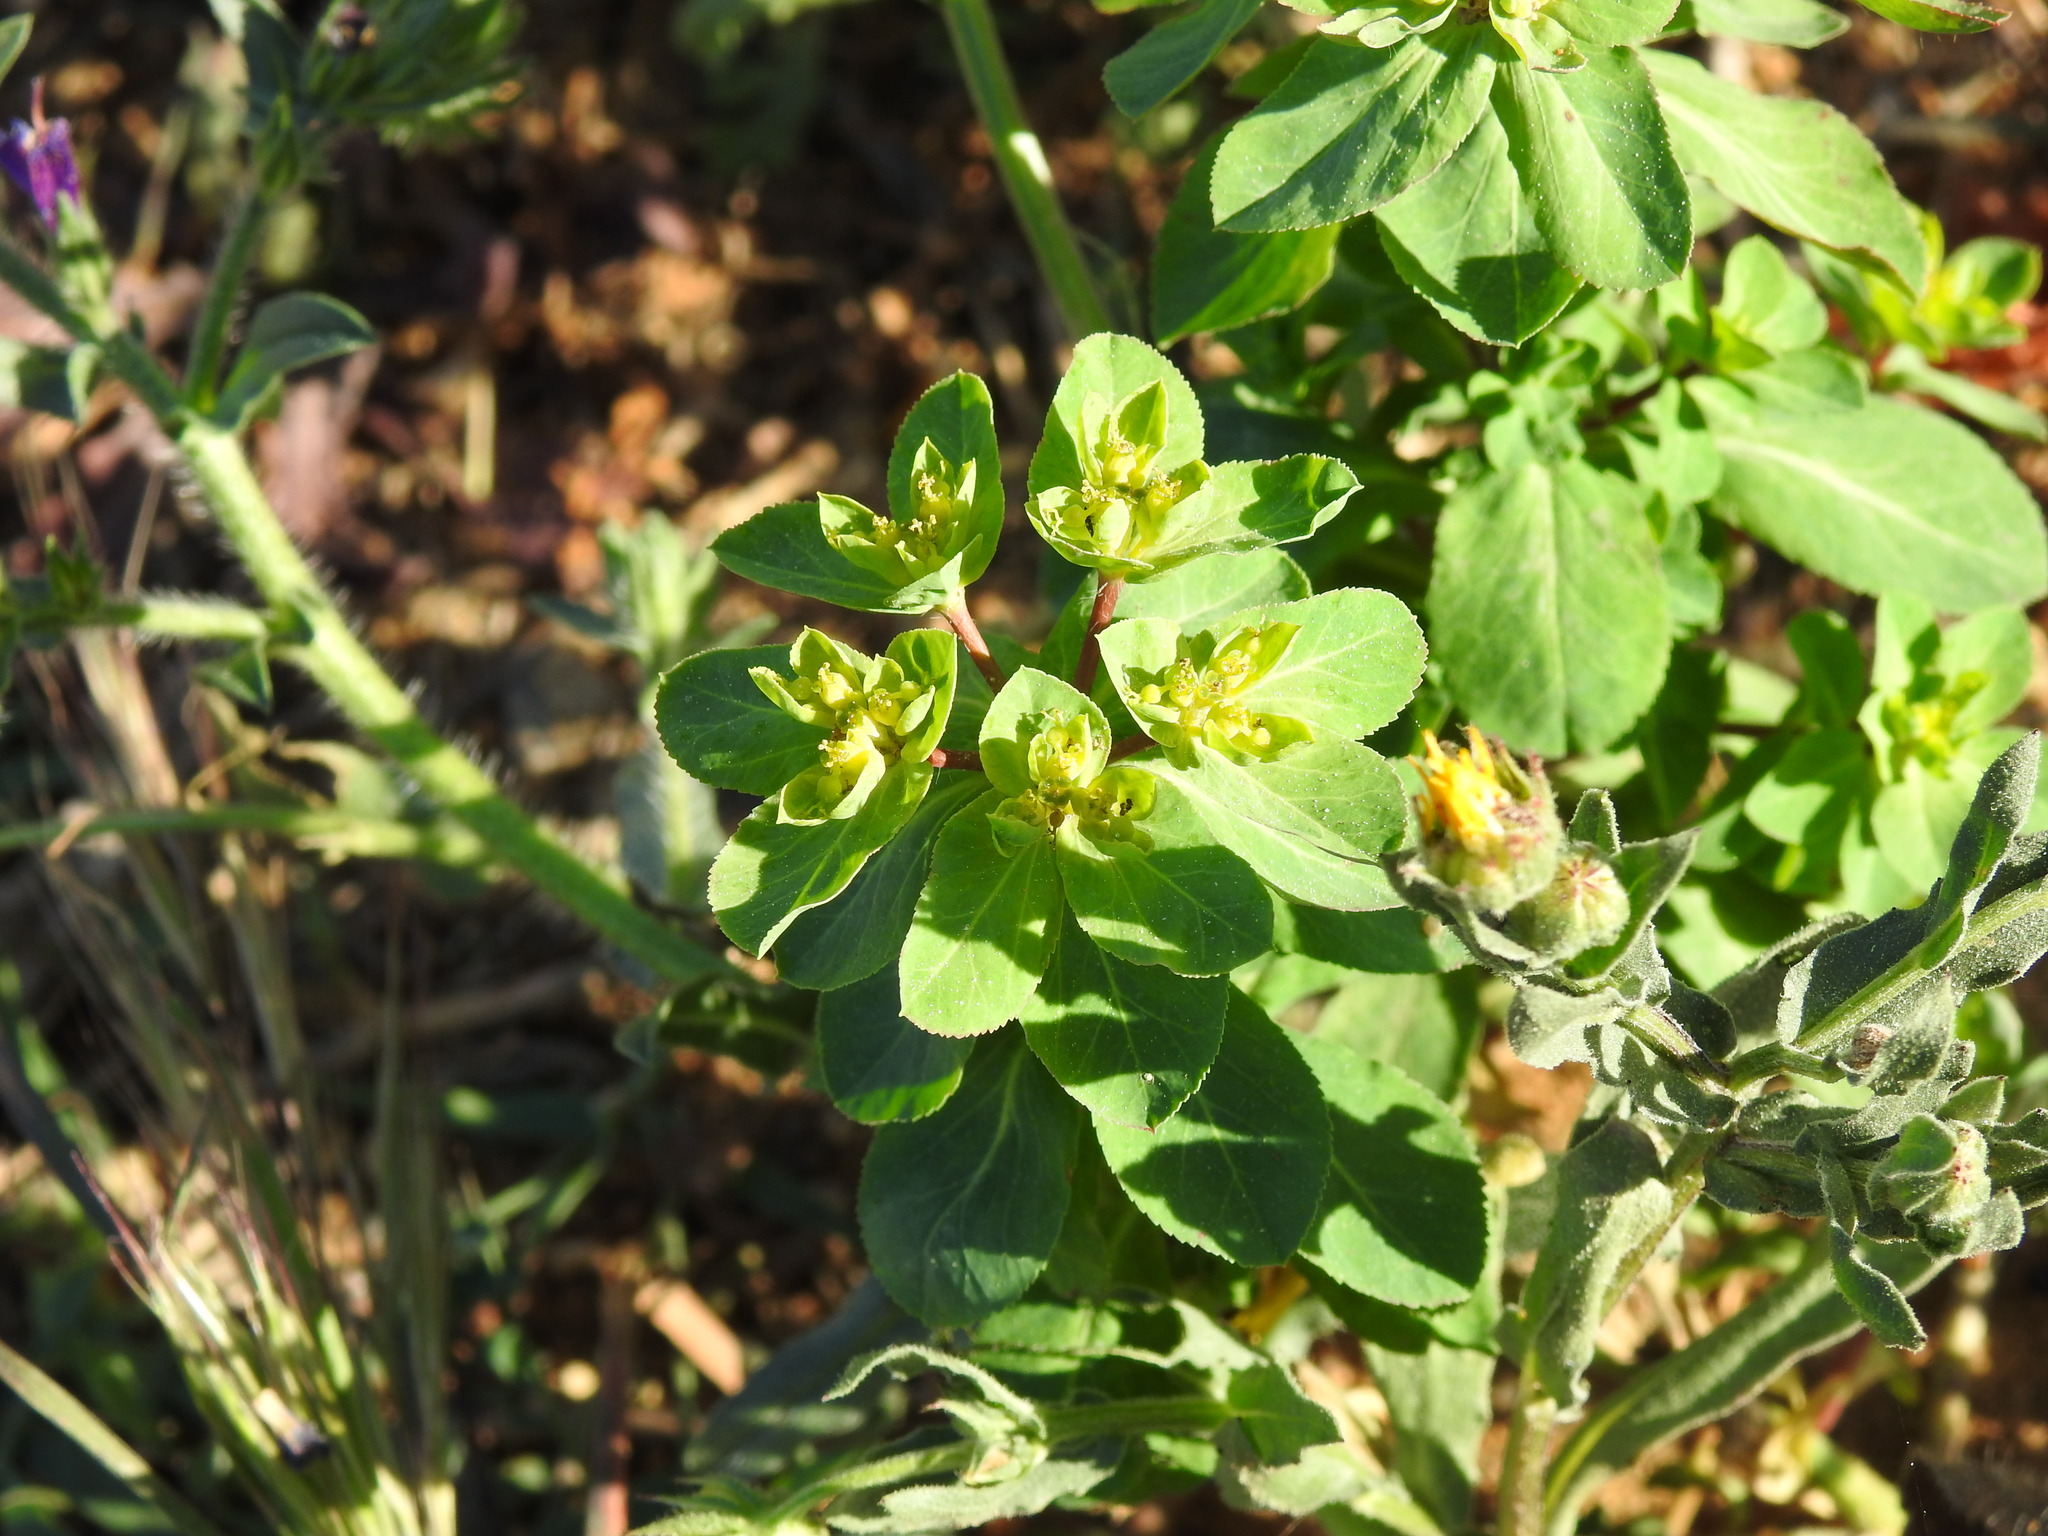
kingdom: Plantae
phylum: Tracheophyta
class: Magnoliopsida
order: Malpighiales
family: Euphorbiaceae
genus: Euphorbia
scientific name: Euphorbia helioscopia
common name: Sun spurge
